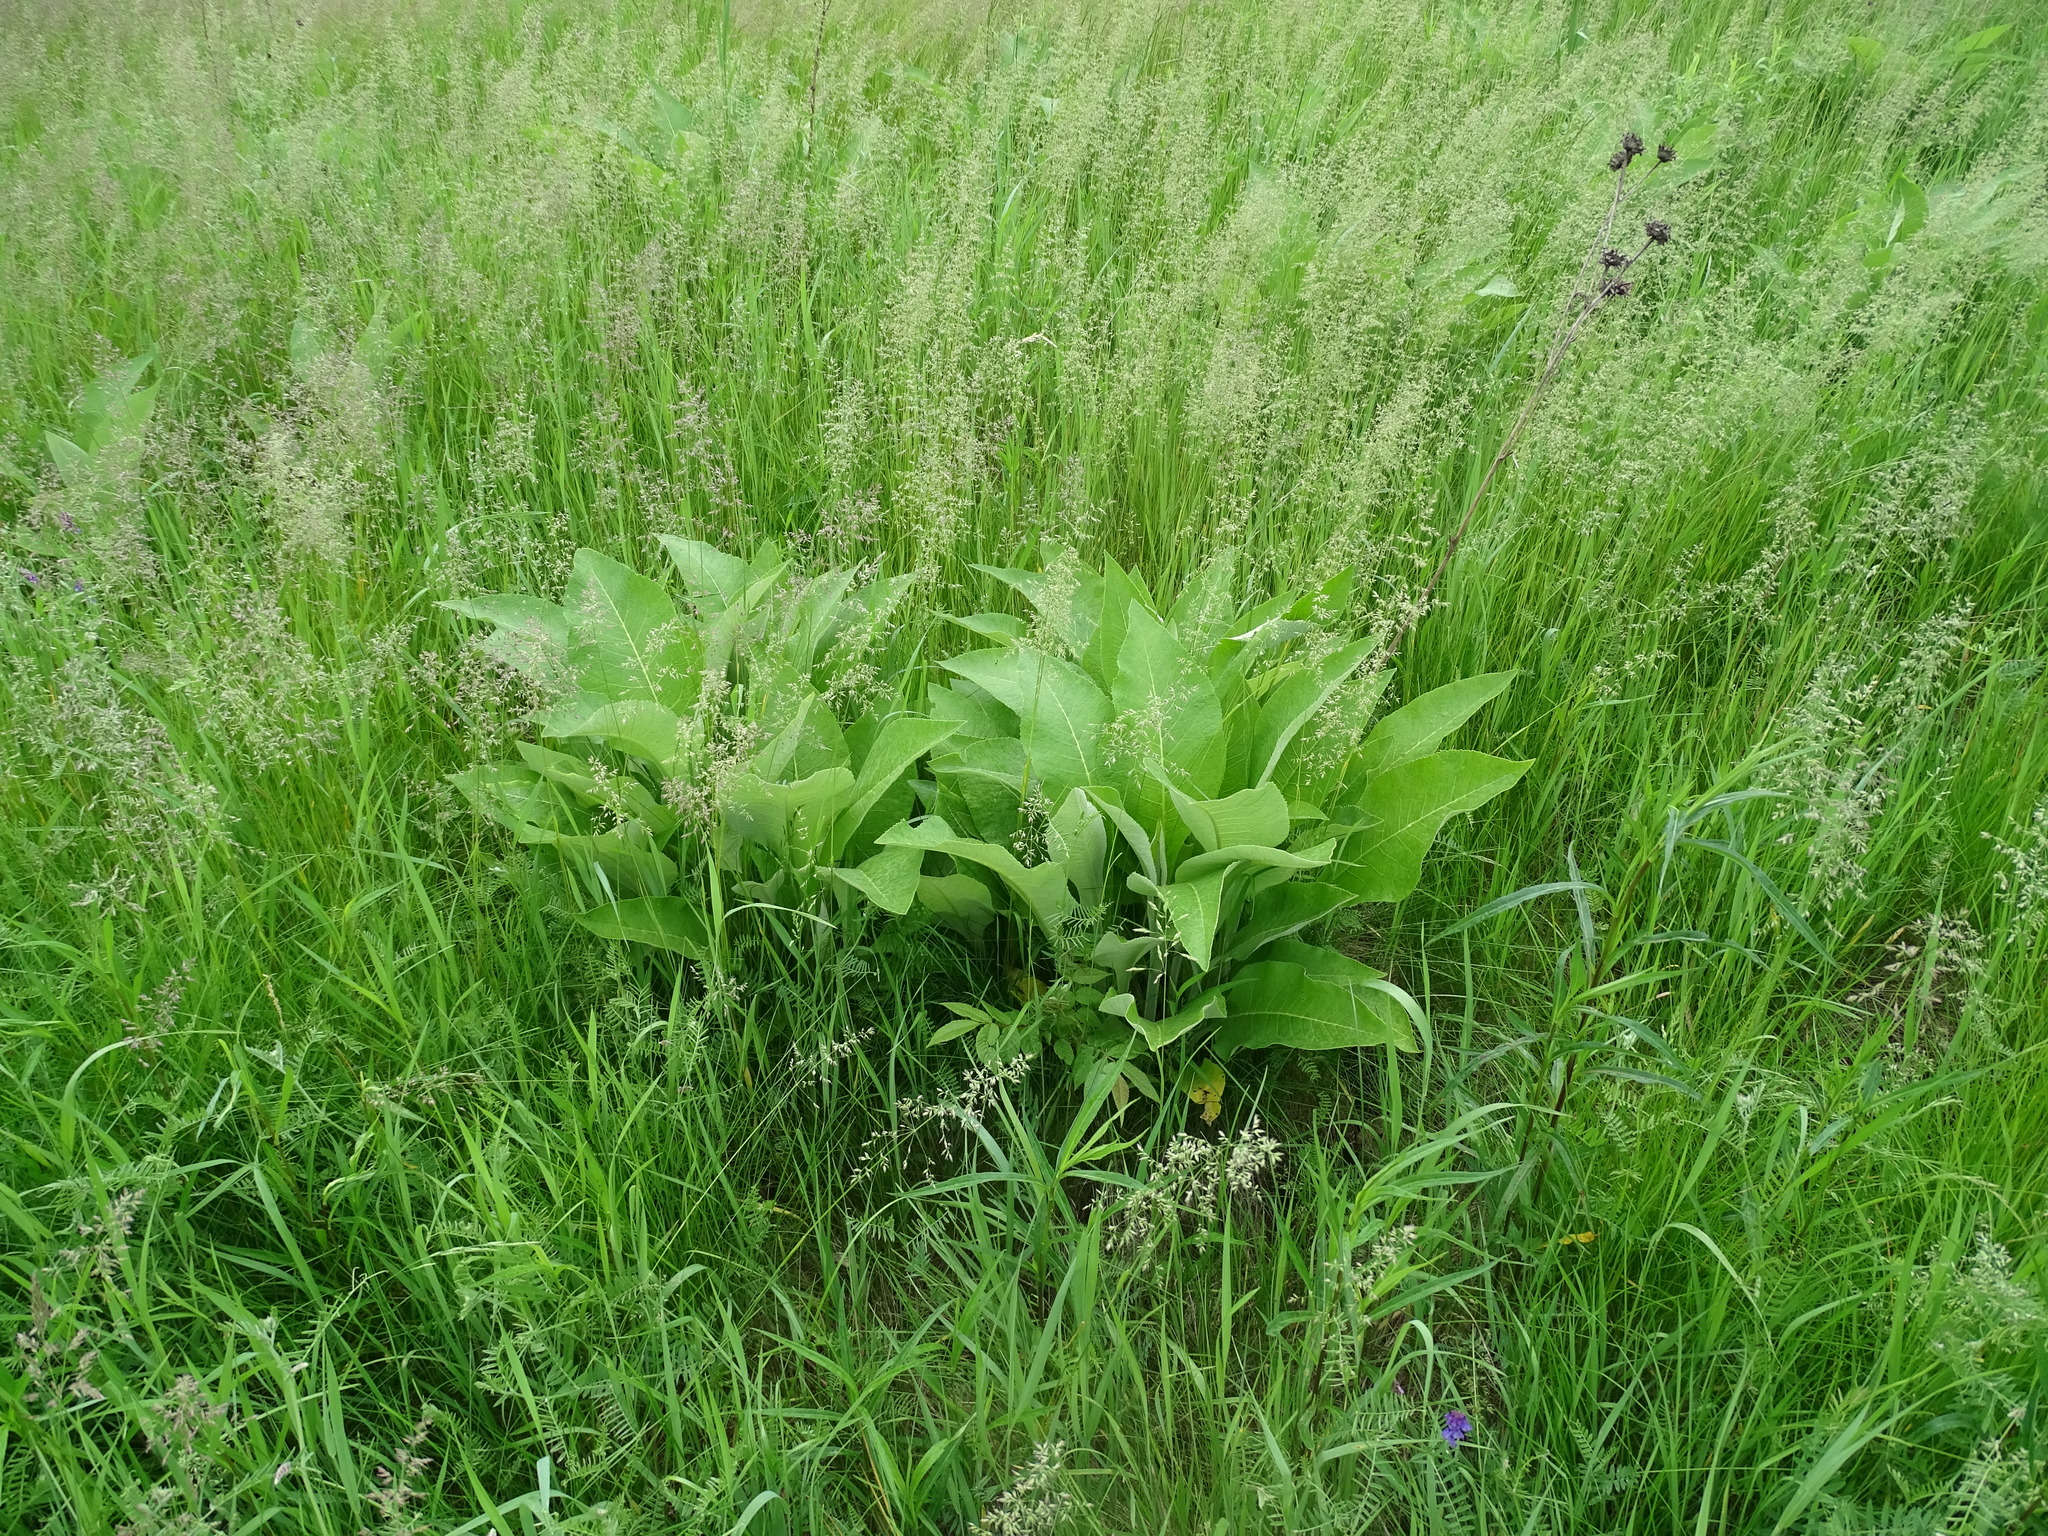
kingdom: Plantae
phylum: Tracheophyta
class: Magnoliopsida
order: Asterales
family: Asteraceae
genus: Inula
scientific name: Inula helenium
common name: Elecampane
